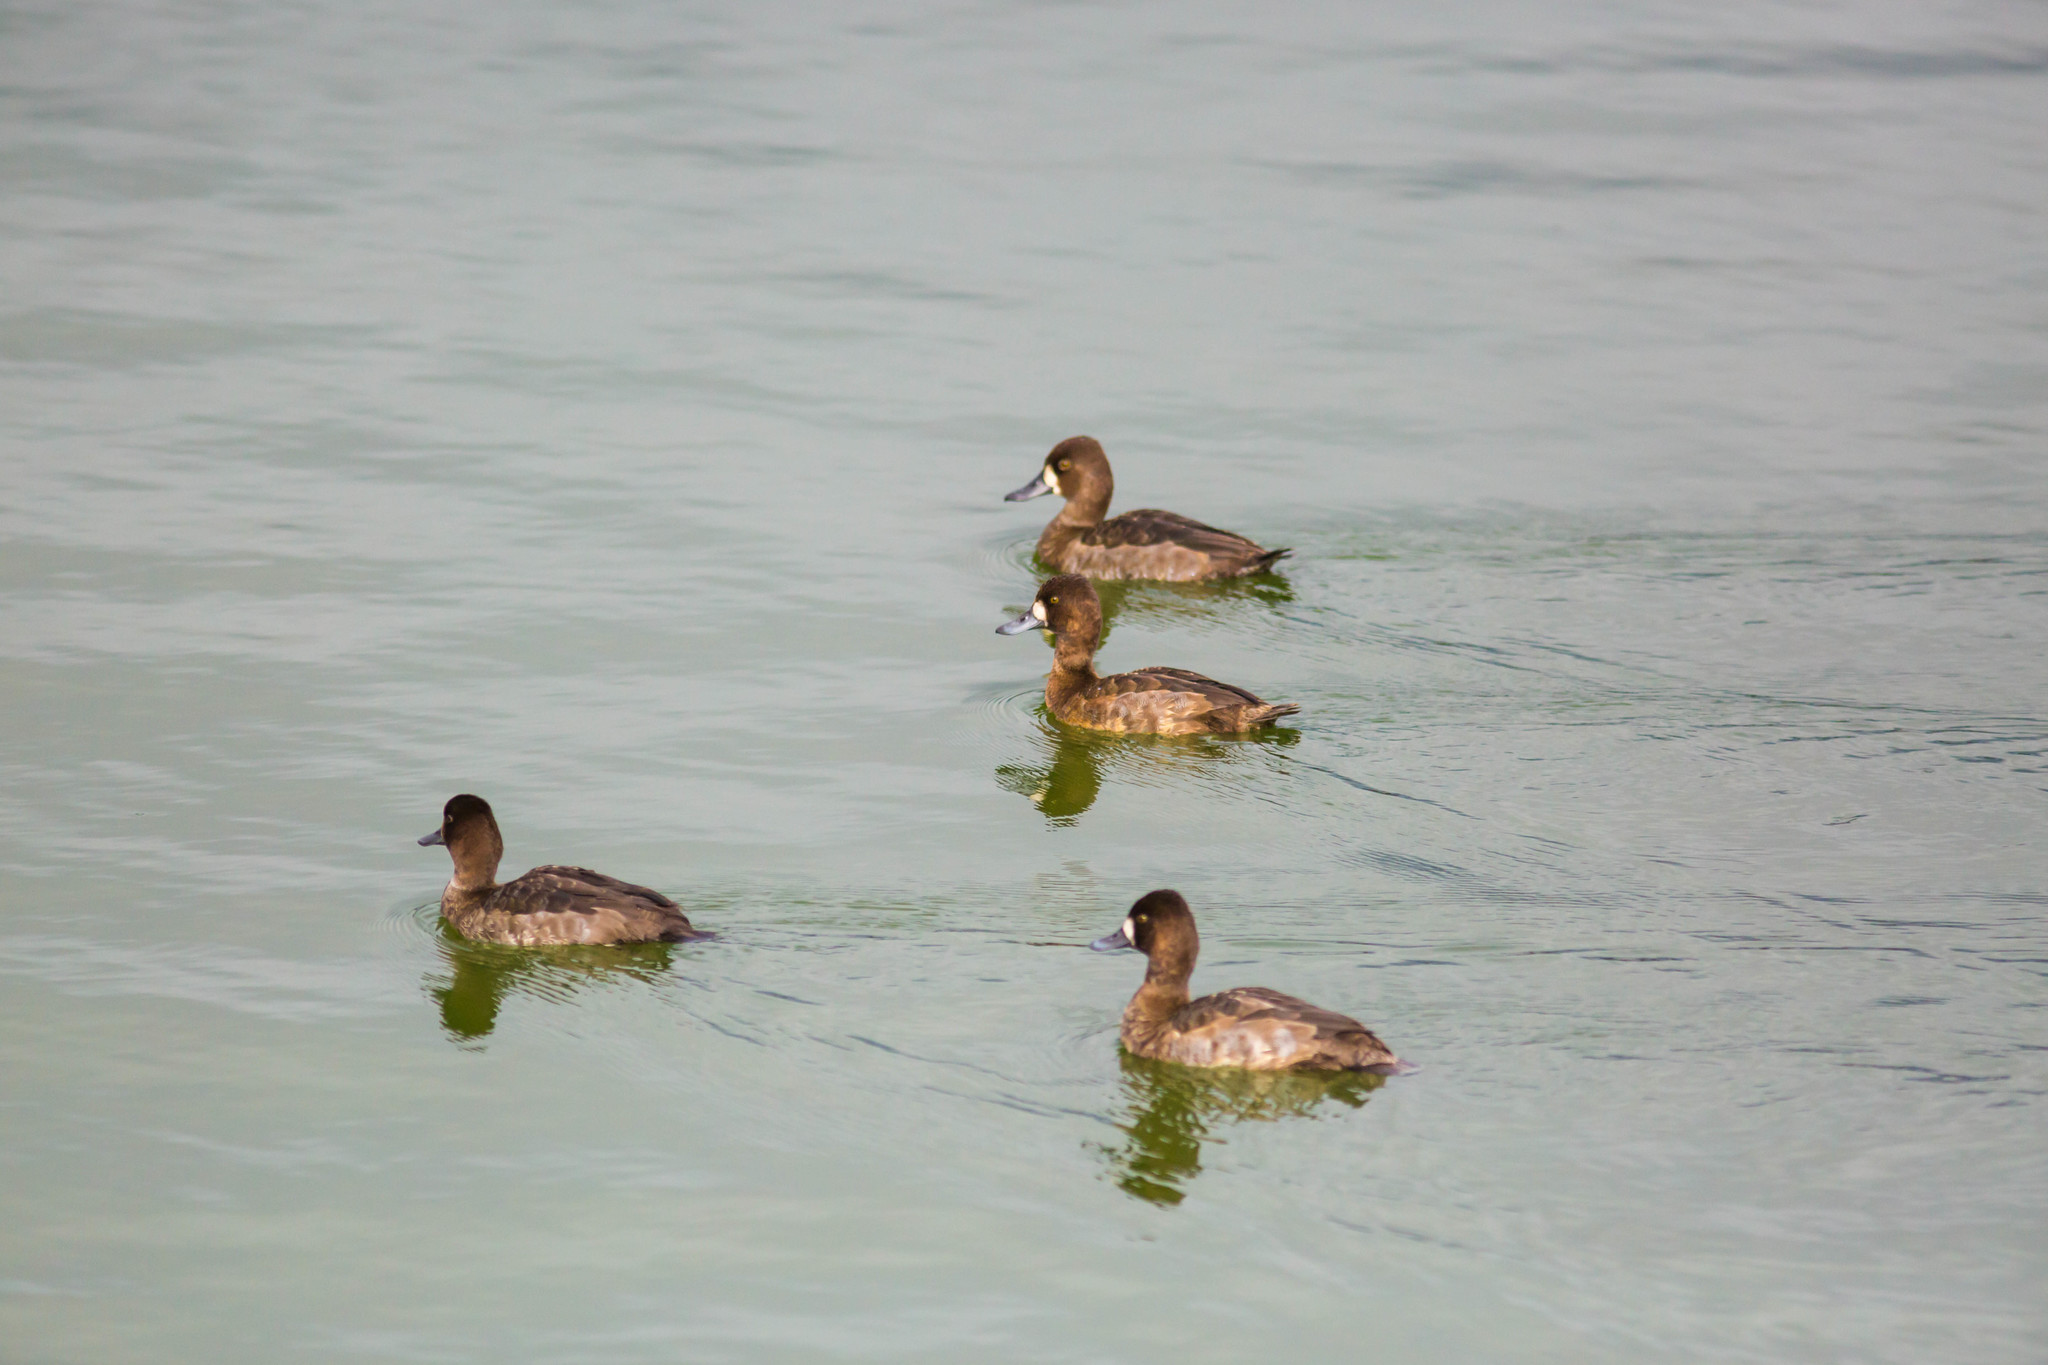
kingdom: Animalia
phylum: Chordata
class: Aves
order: Anseriformes
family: Anatidae
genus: Aythya
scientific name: Aythya affinis
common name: Lesser scaup
